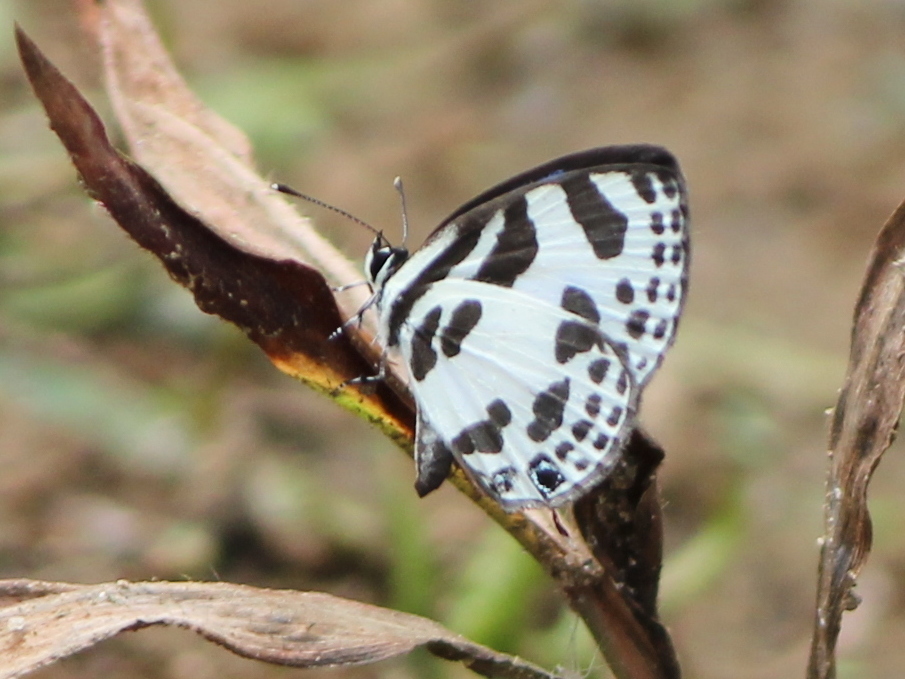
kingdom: Animalia
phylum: Arthropoda
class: Insecta
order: Lepidoptera
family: Lycaenidae
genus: Discolampa
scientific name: Discolampa ethion
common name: Banded blue pierrot
